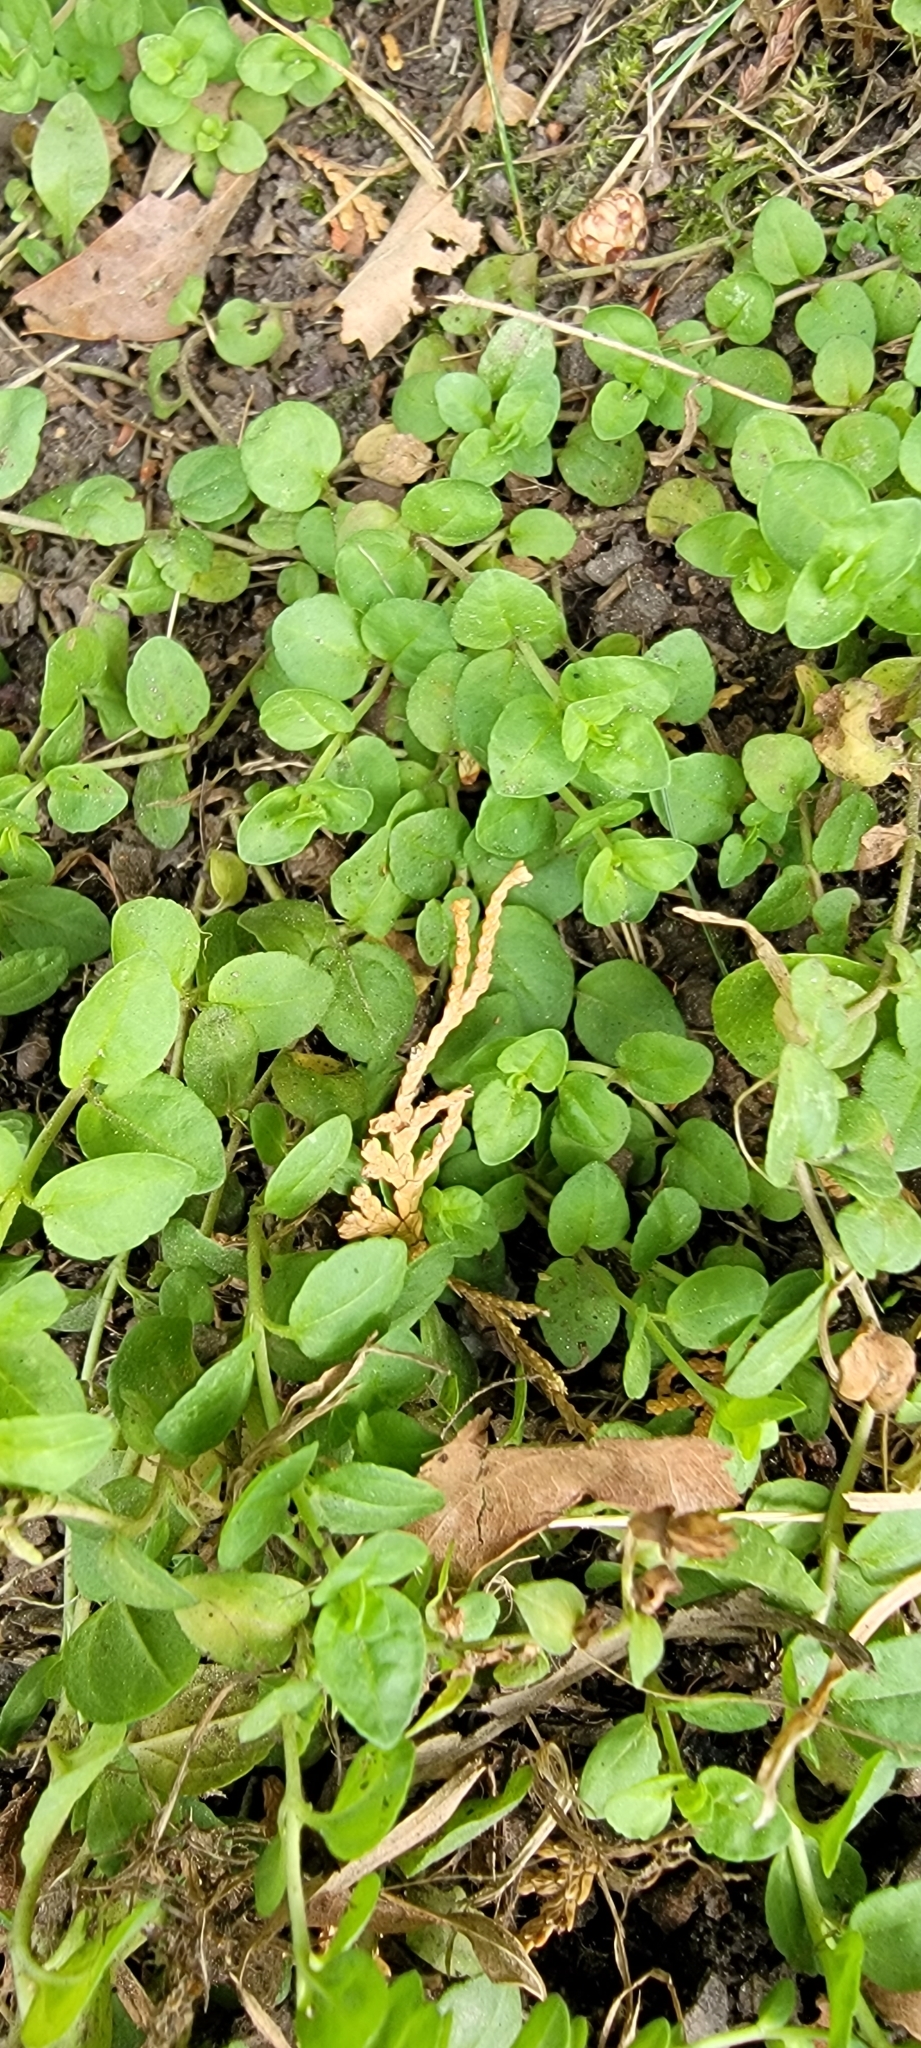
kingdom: Plantae
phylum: Tracheophyta
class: Magnoliopsida
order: Caryophyllales
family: Caryophyllaceae
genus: Stellaria
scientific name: Stellaria media
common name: Common chickweed
